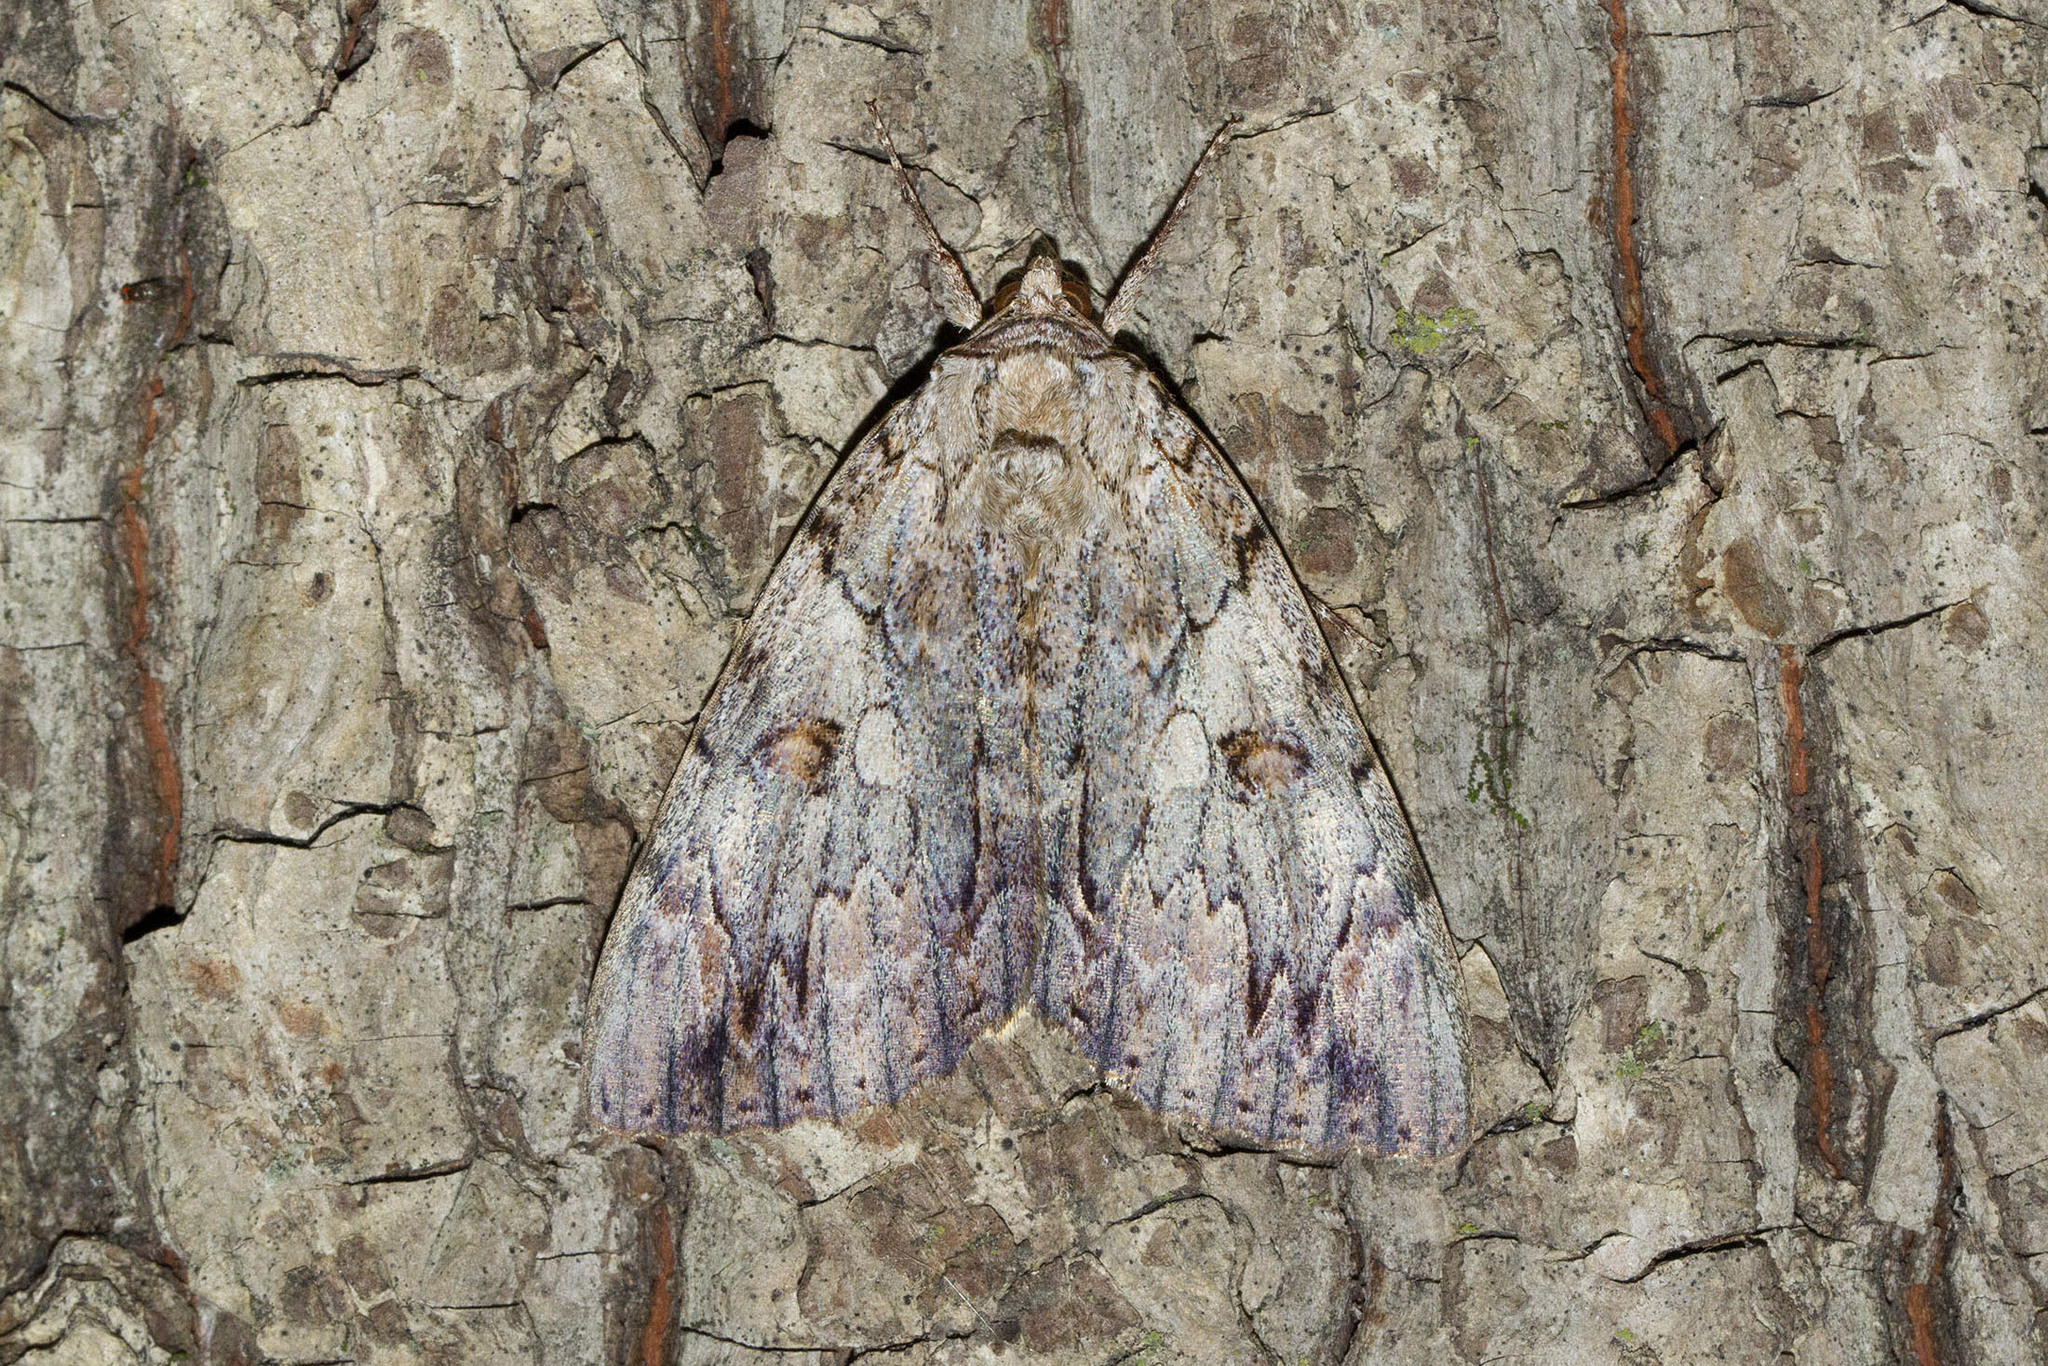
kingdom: Animalia
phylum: Arthropoda
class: Insecta
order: Lepidoptera
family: Erebidae
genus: Catocala
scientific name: Catocala subnata
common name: Youthful underwing
